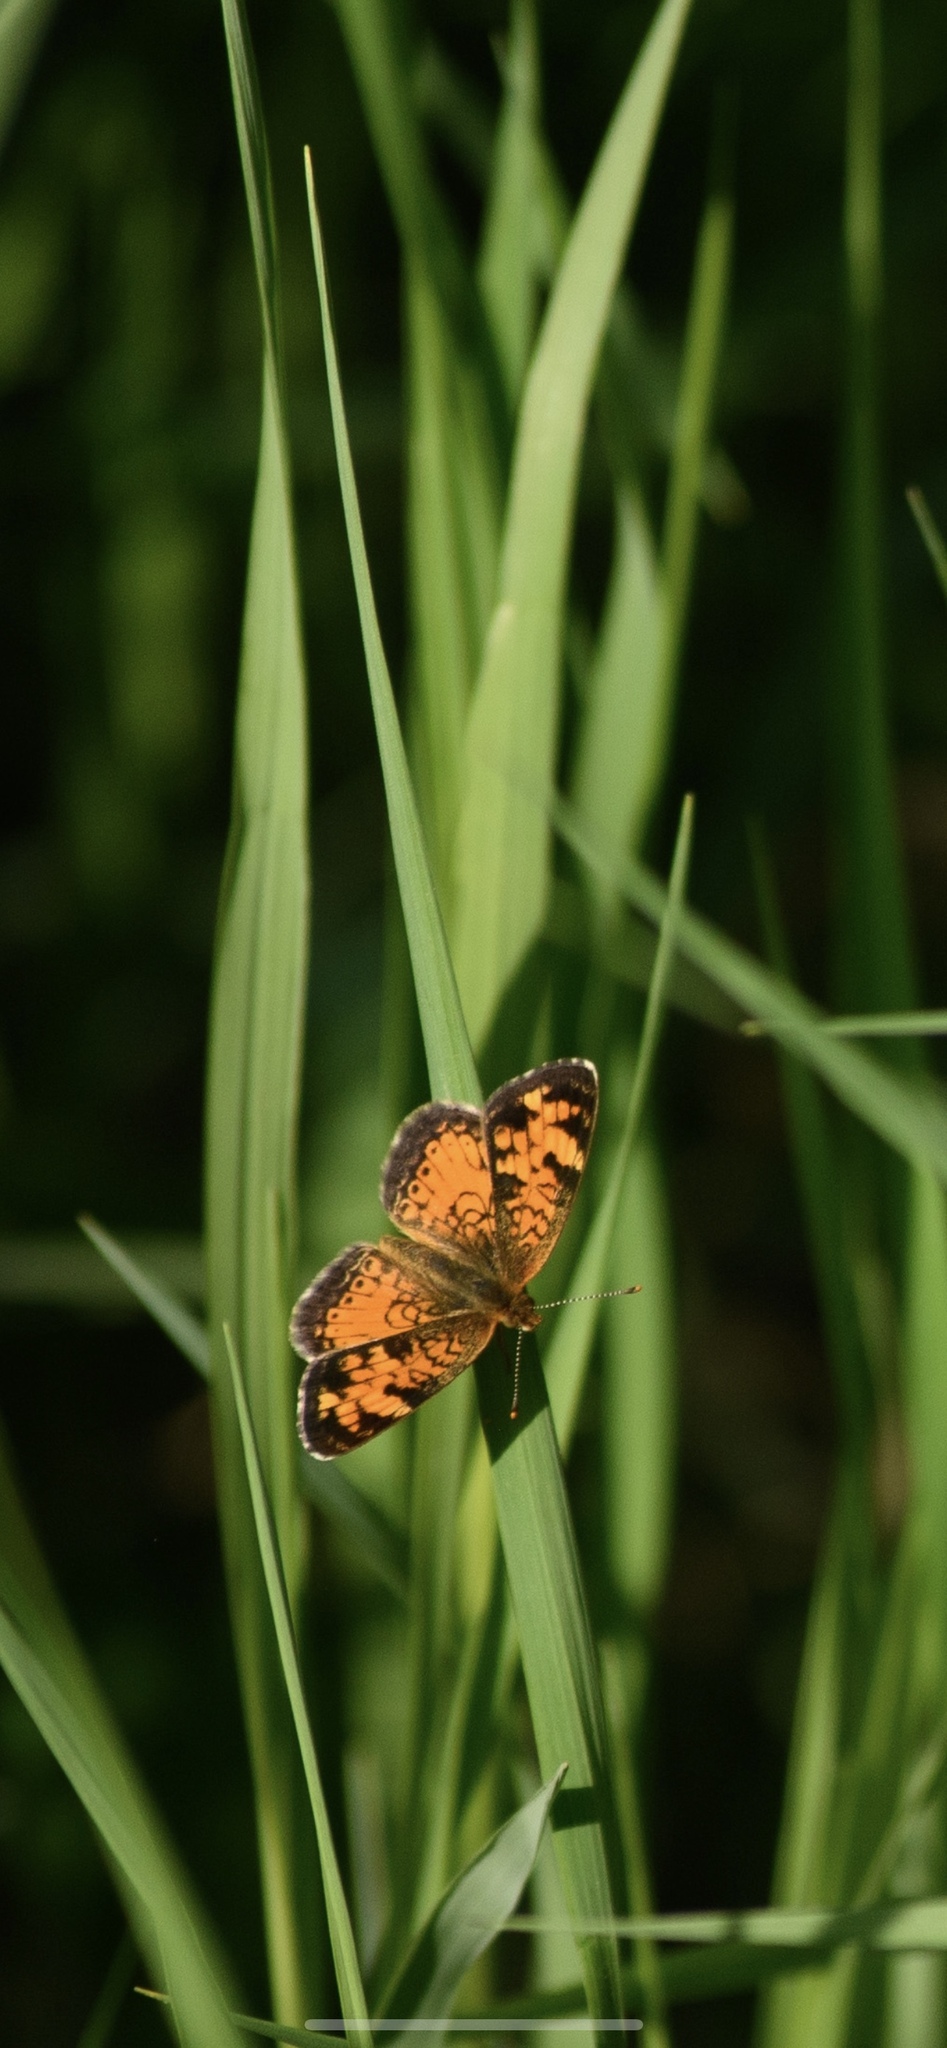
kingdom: Animalia
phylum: Arthropoda
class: Insecta
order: Lepidoptera
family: Nymphalidae
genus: Phyciodes
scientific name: Phyciodes tharos
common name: Pearl crescent
